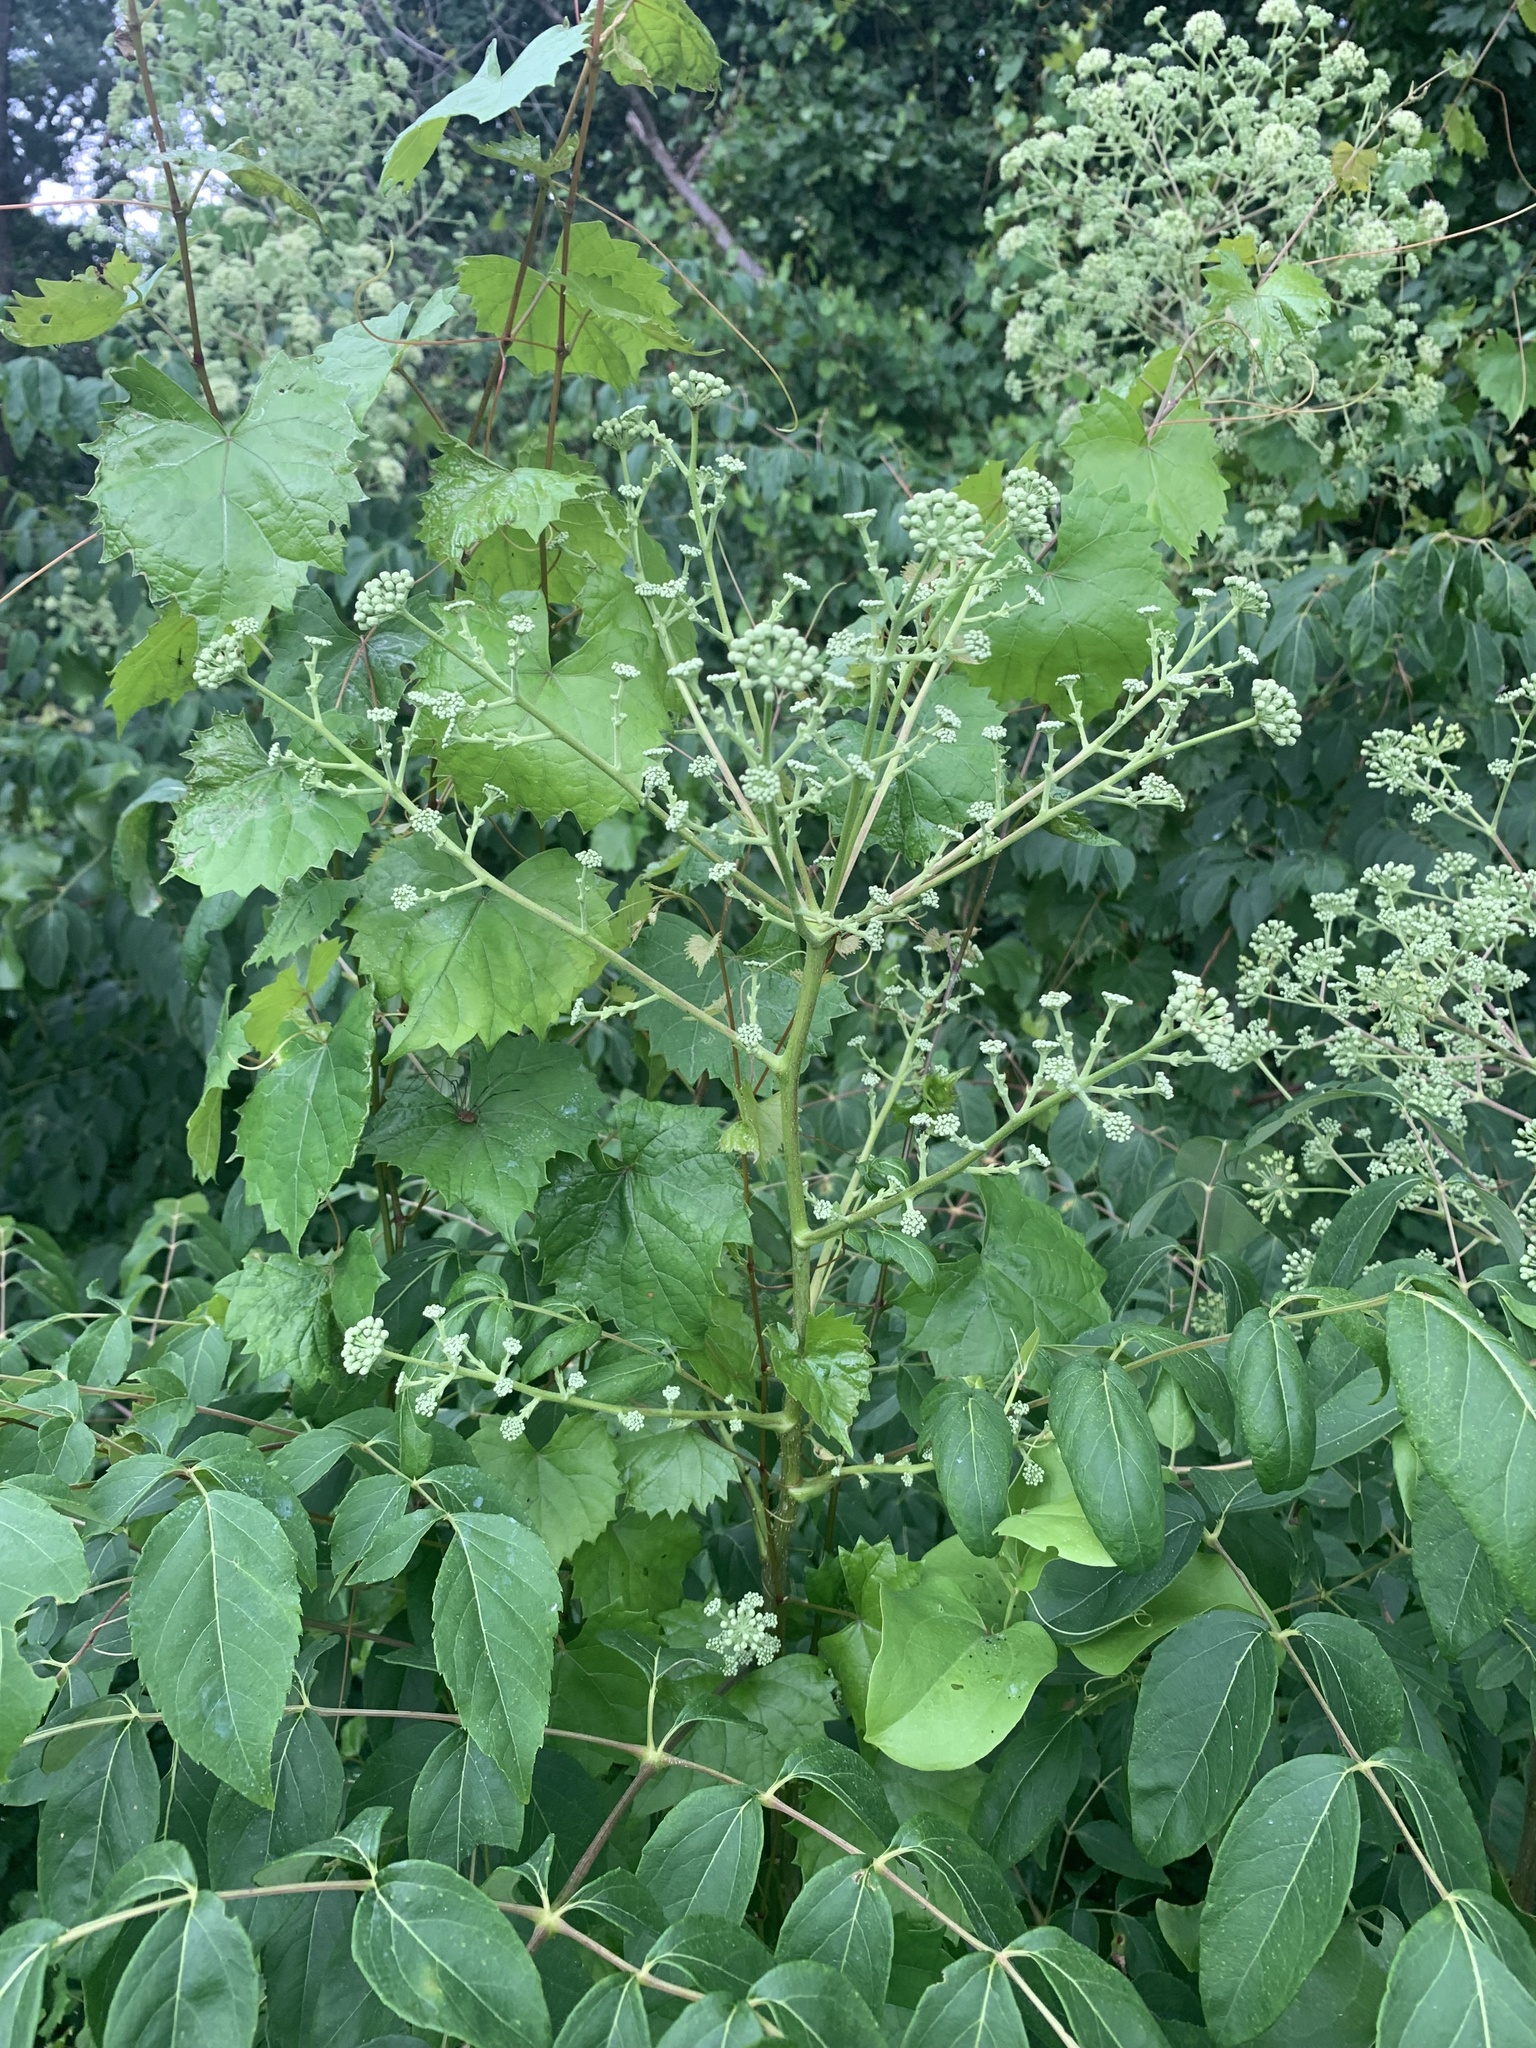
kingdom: Plantae
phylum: Tracheophyta
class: Magnoliopsida
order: Apiales
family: Araliaceae
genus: Aralia
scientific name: Aralia spinosa
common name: Hercules'-club
